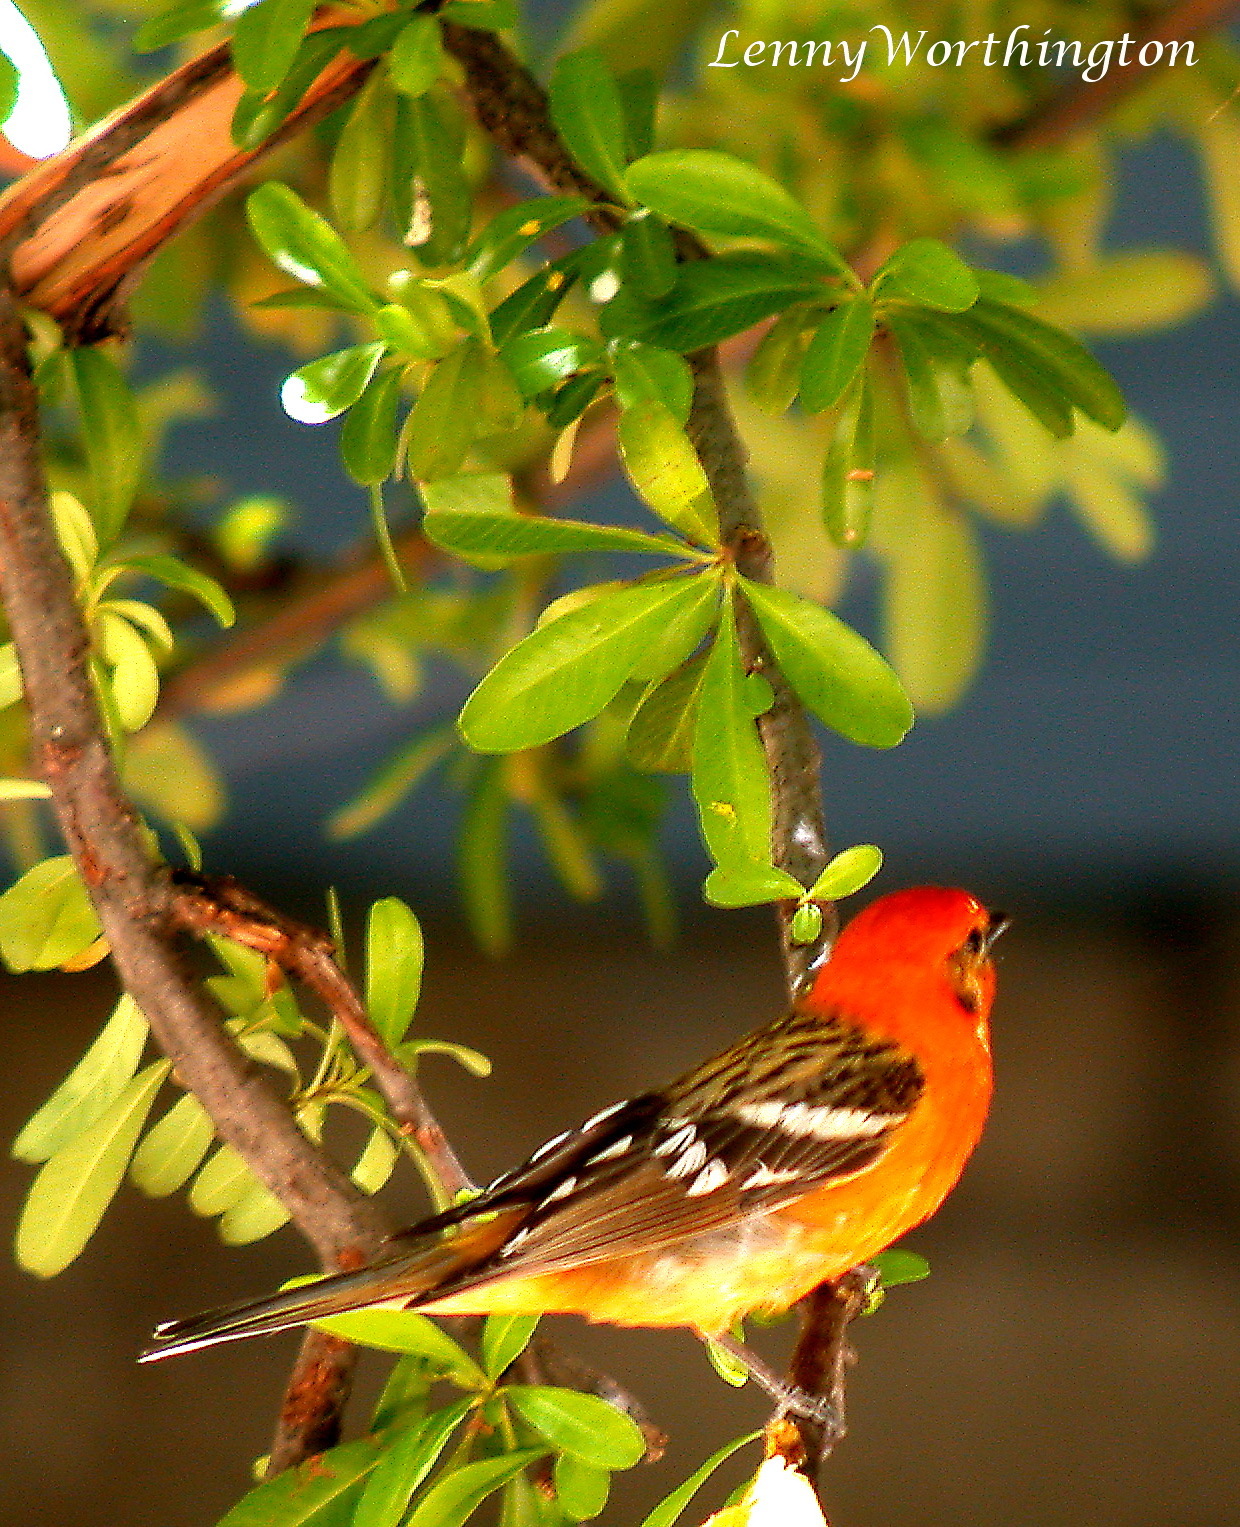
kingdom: Animalia
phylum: Chordata
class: Aves
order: Passeriformes
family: Cardinalidae
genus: Piranga
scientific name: Piranga bidentata
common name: Flame-colored tanager
